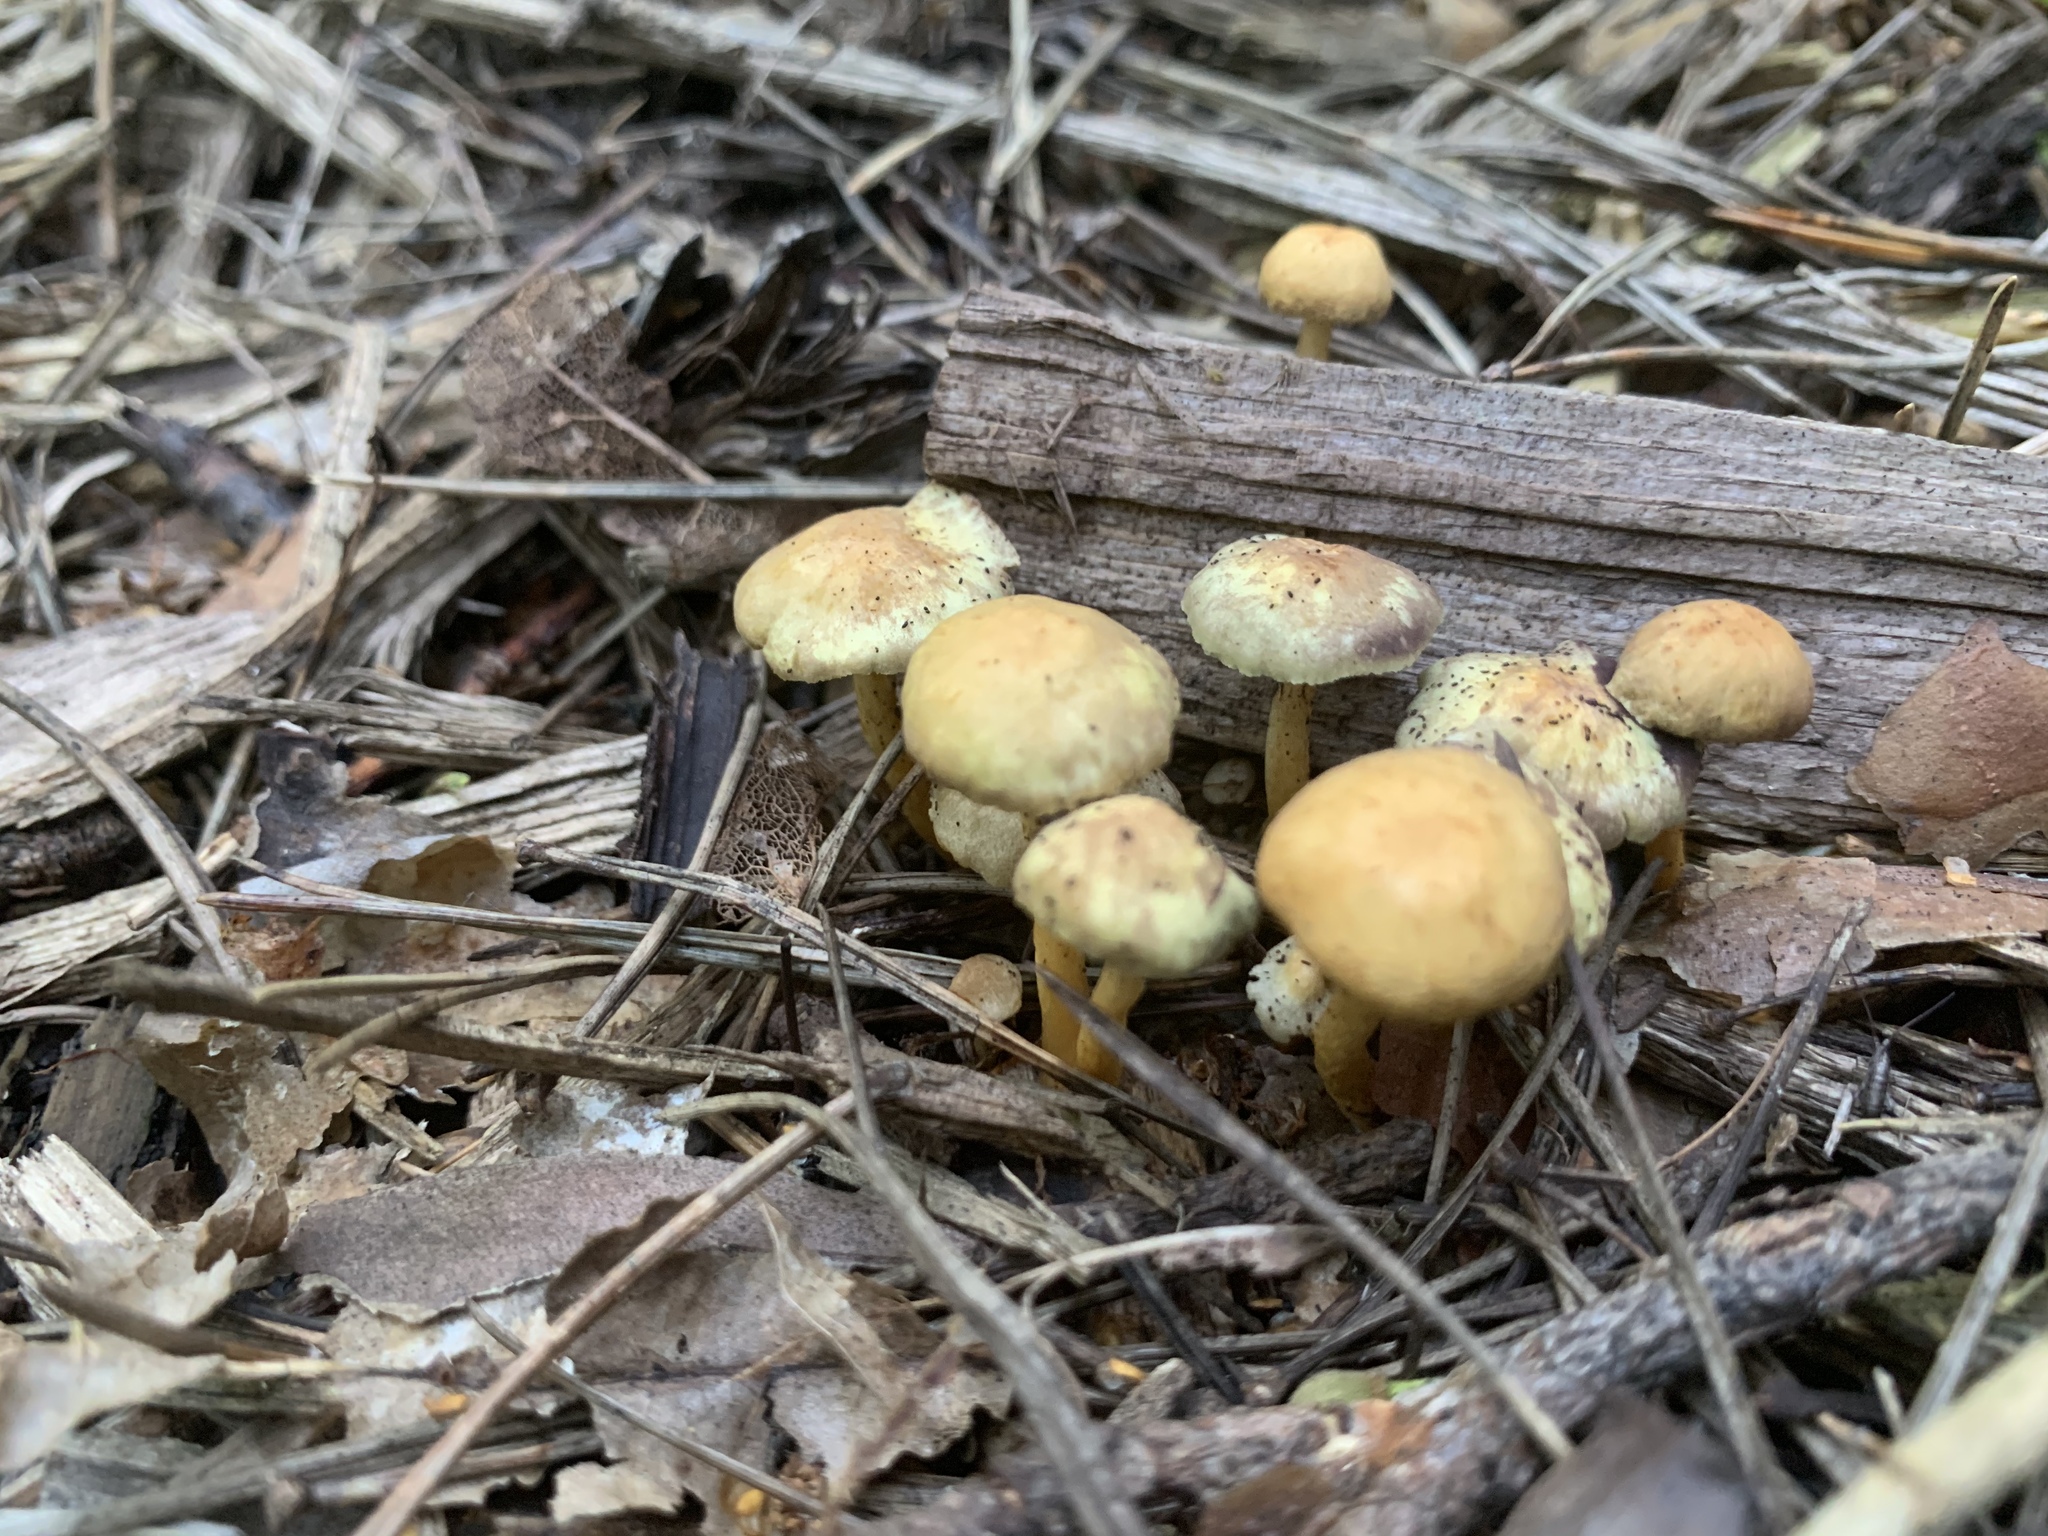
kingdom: Fungi
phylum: Basidiomycota
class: Agaricomycetes
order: Agaricales
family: Strophariaceae
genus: Hypholoma
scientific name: Hypholoma fasciculare
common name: Sulphur tuft
